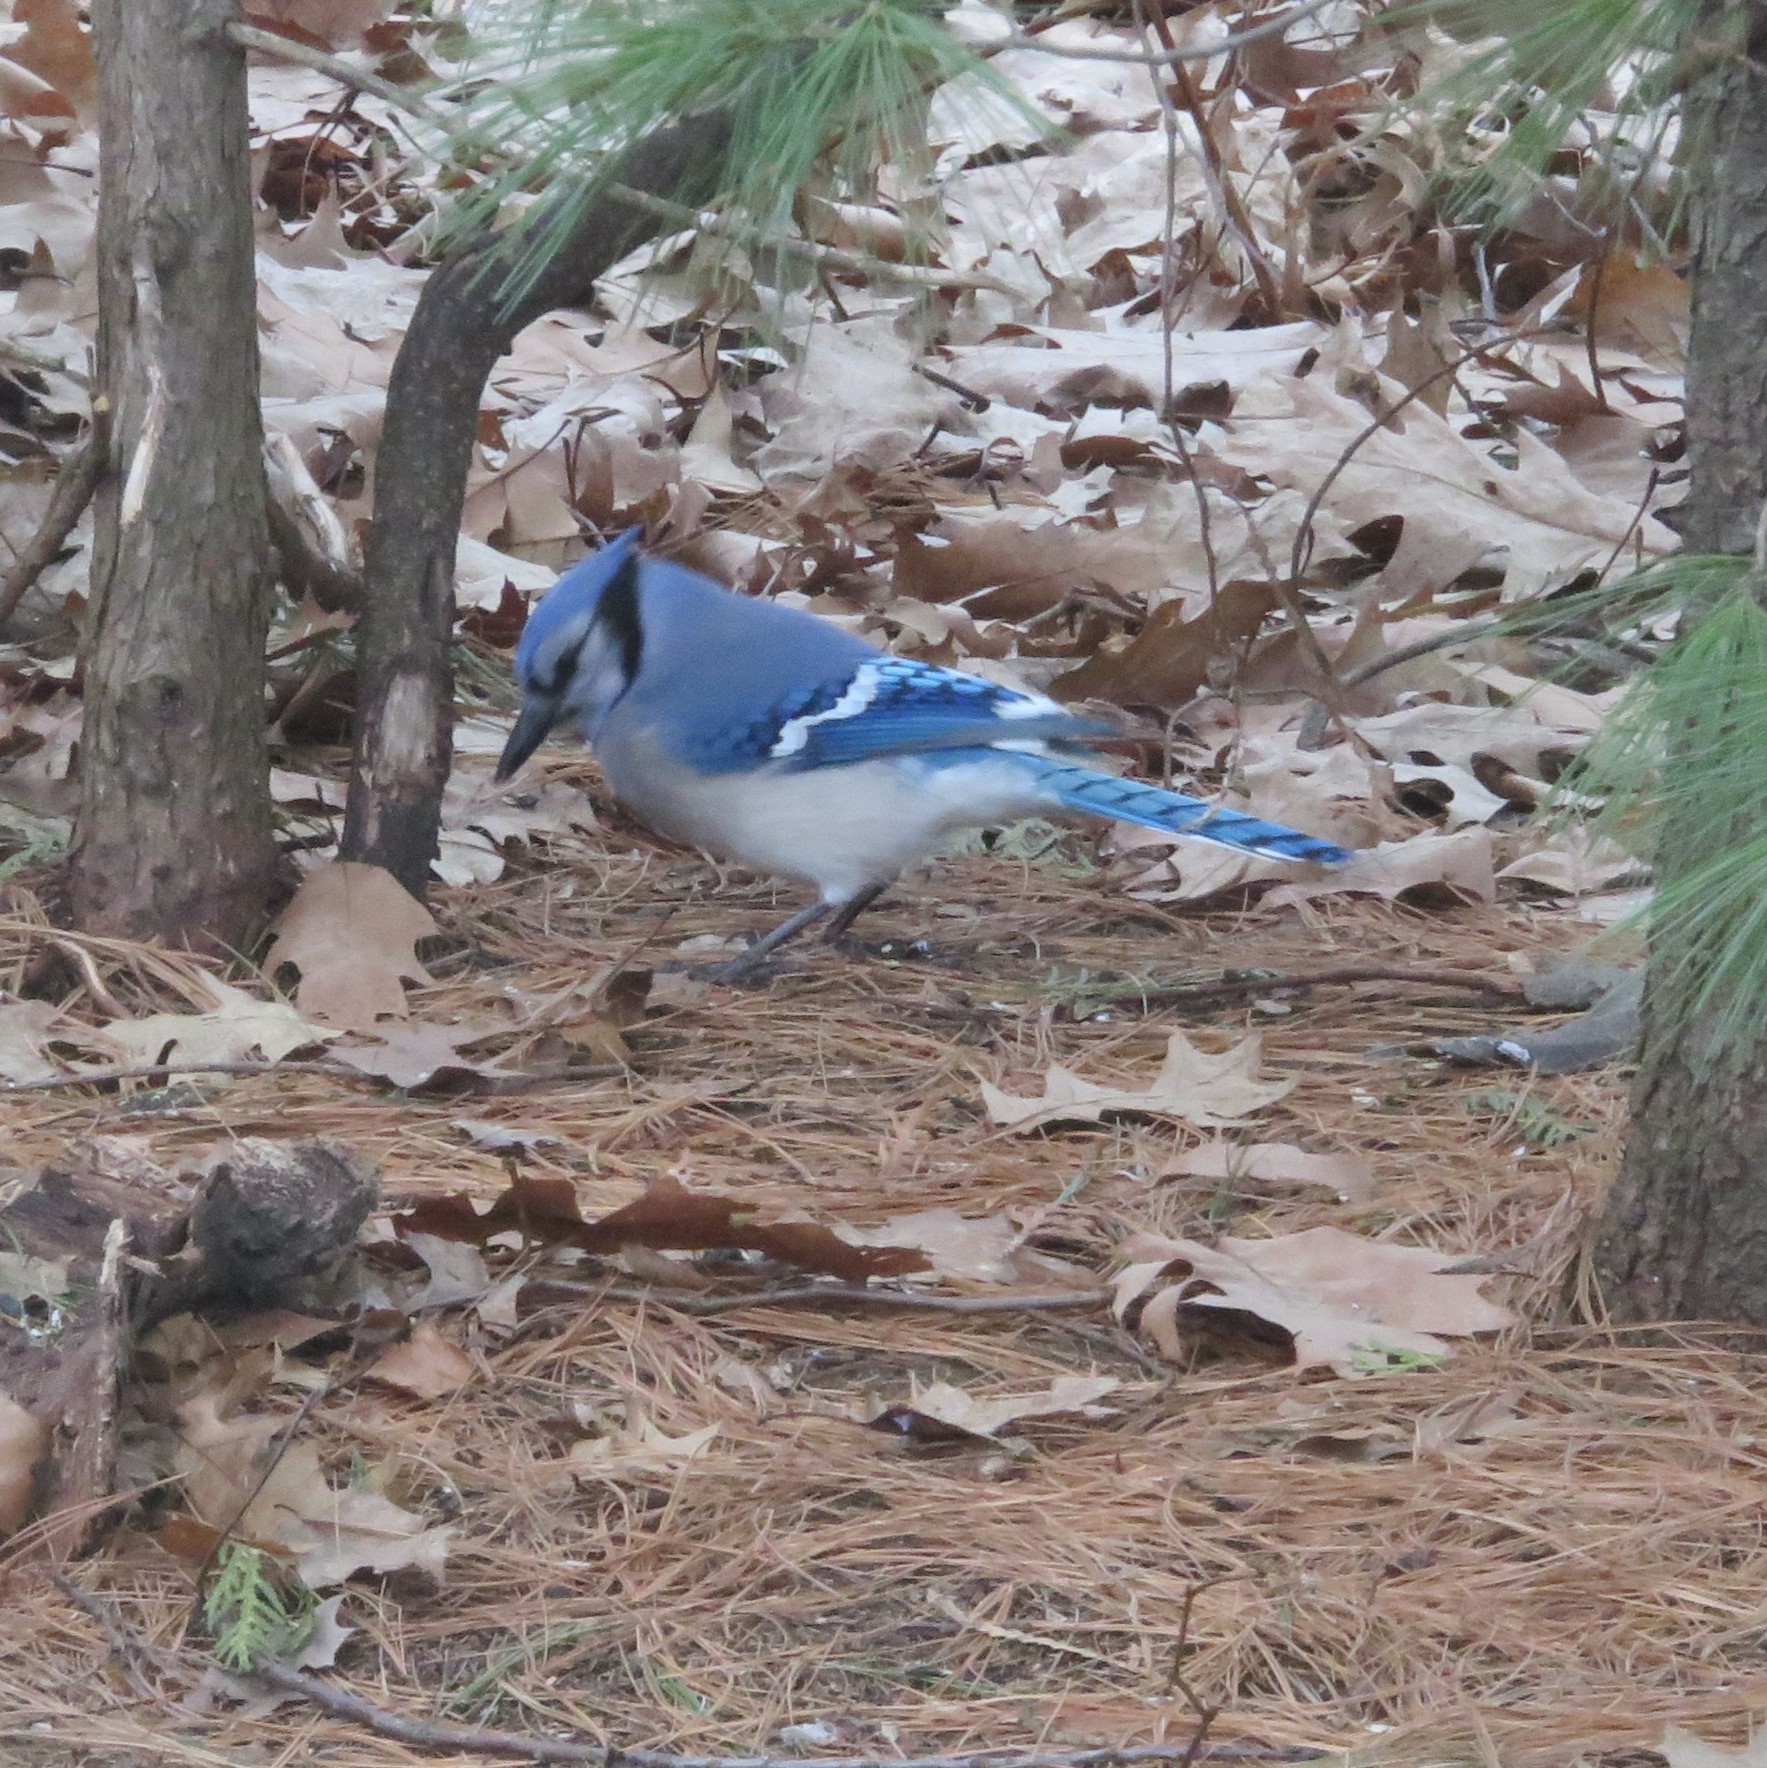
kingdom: Animalia
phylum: Chordata
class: Aves
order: Passeriformes
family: Corvidae
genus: Cyanocitta
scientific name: Cyanocitta cristata
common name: Blue jay
